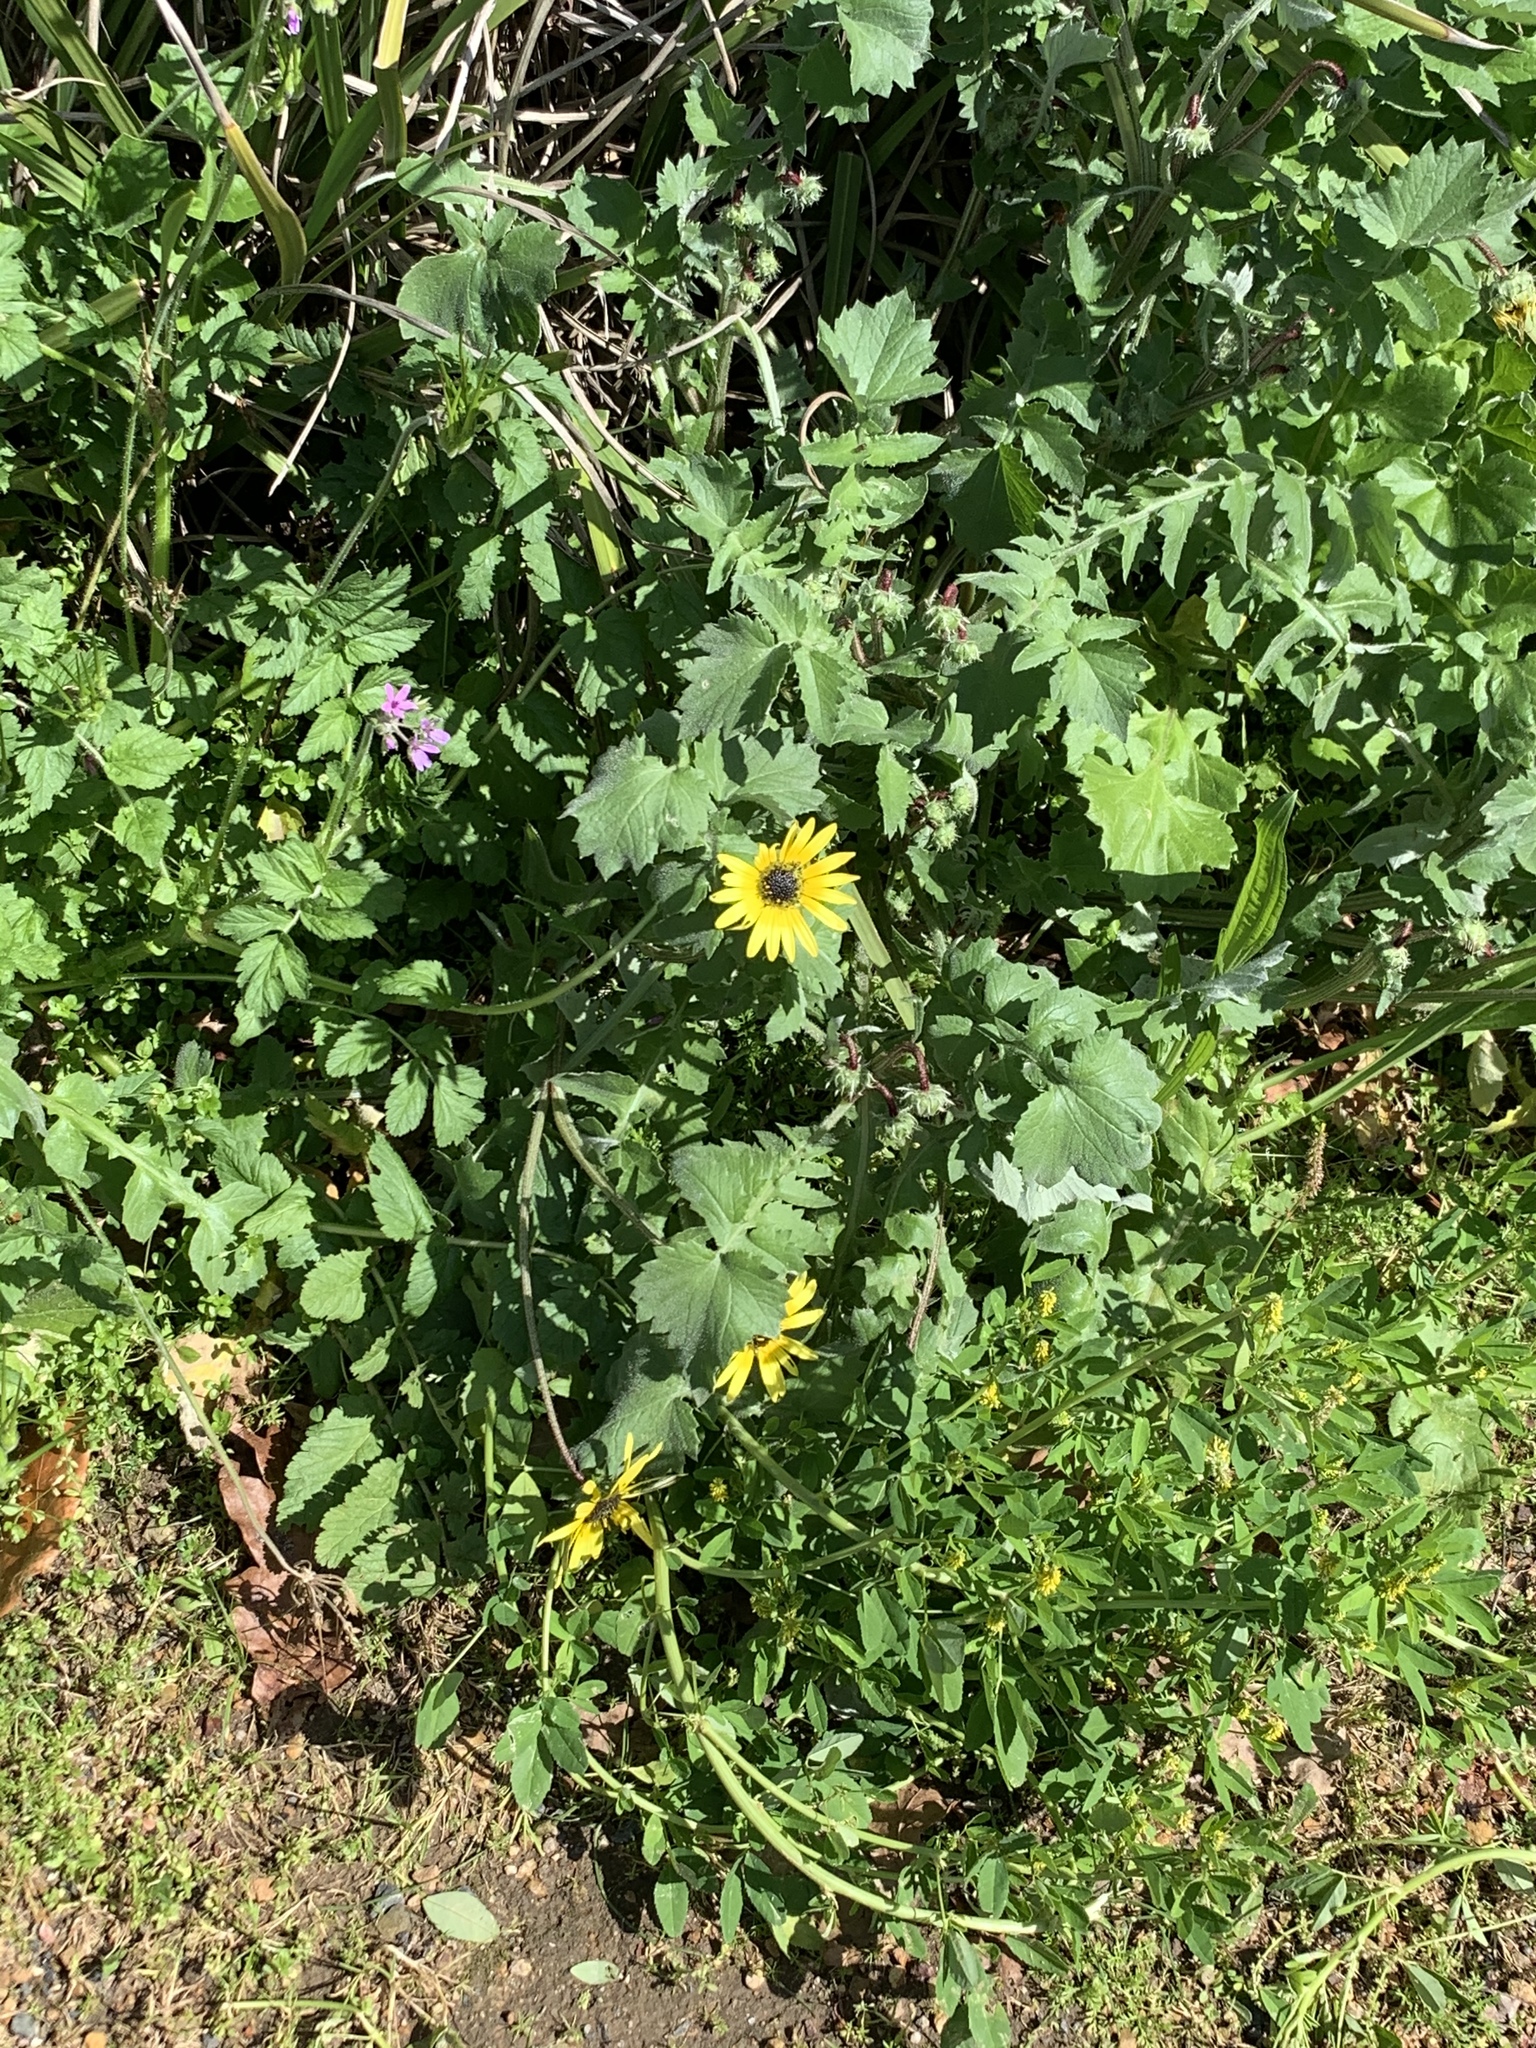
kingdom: Plantae
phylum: Tracheophyta
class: Magnoliopsida
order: Asterales
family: Asteraceae
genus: Arctotheca
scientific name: Arctotheca calendula
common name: Capeweed
